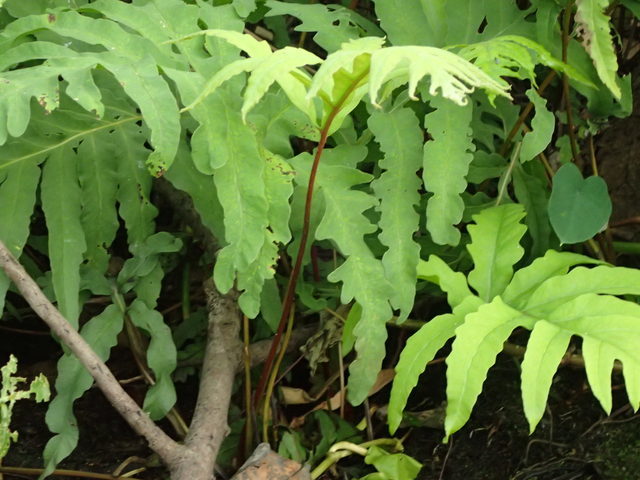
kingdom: Plantae
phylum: Tracheophyta
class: Polypodiopsida
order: Polypodiales
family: Onocleaceae
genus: Onoclea
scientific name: Onoclea sensibilis
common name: Sensitive fern
